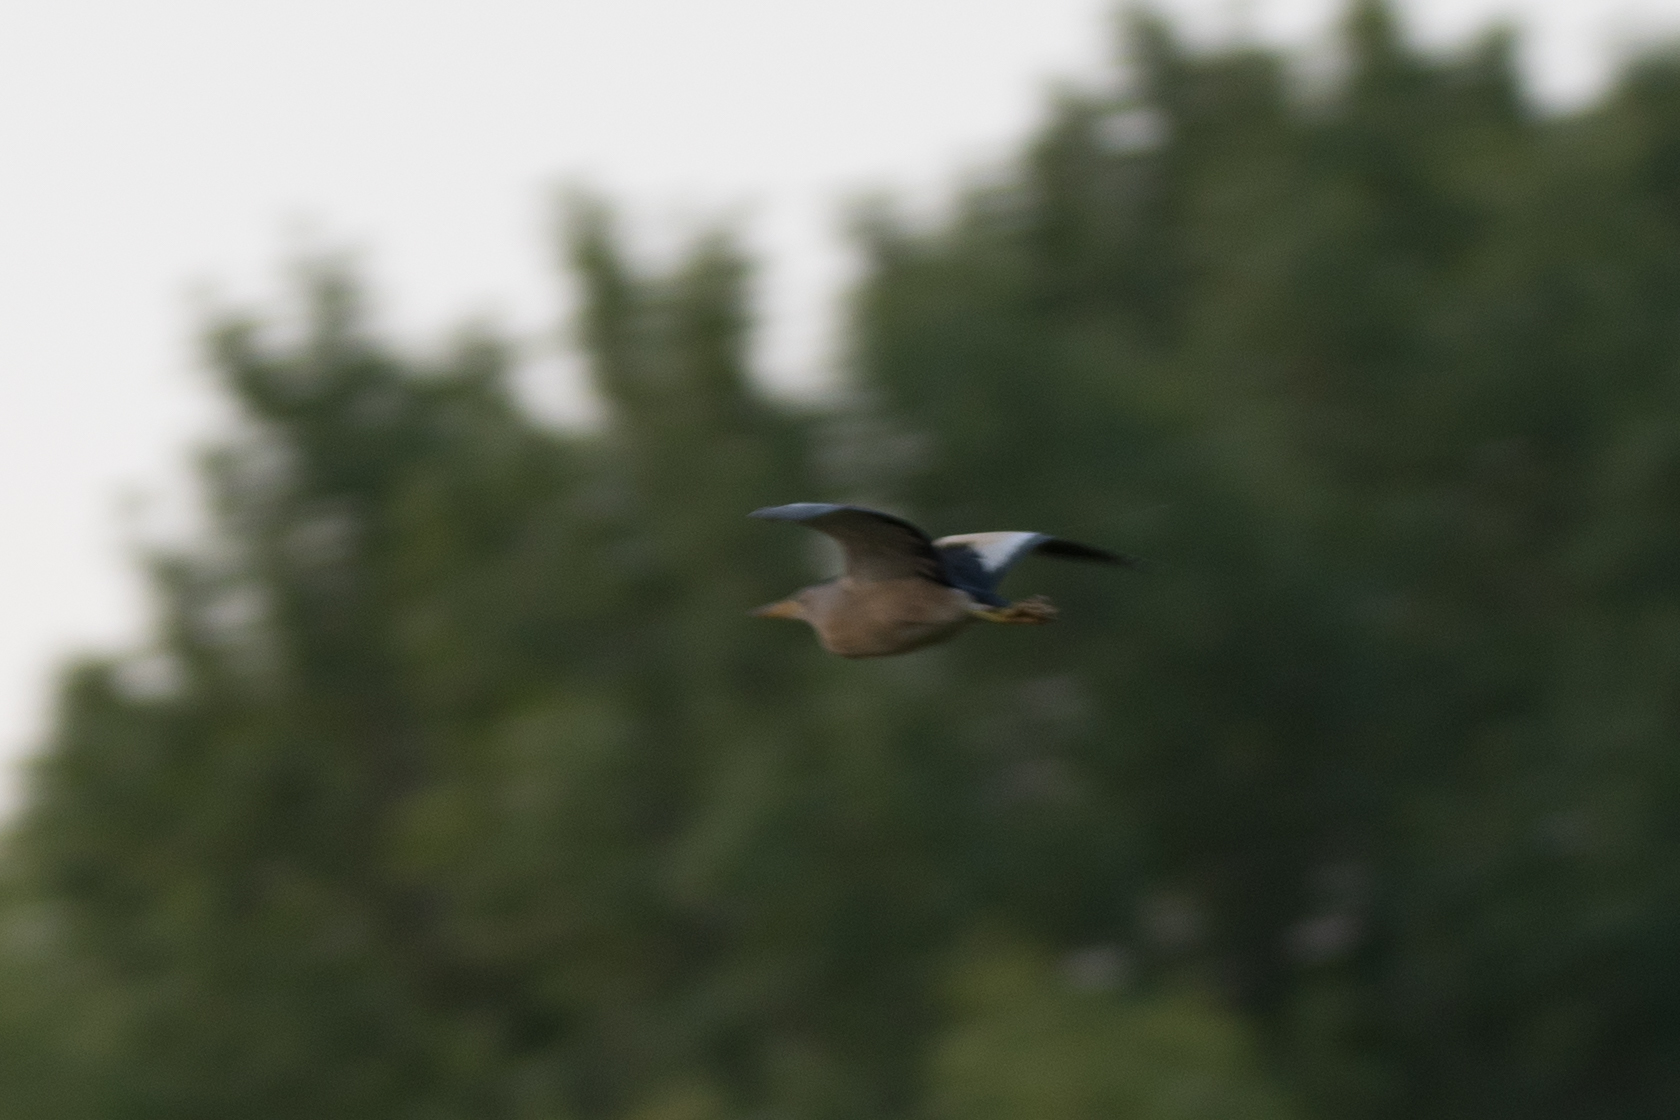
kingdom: Animalia
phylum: Chordata
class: Aves
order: Pelecaniformes
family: Ardeidae
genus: Ixobrychus
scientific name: Ixobrychus minutus
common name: Little bittern
